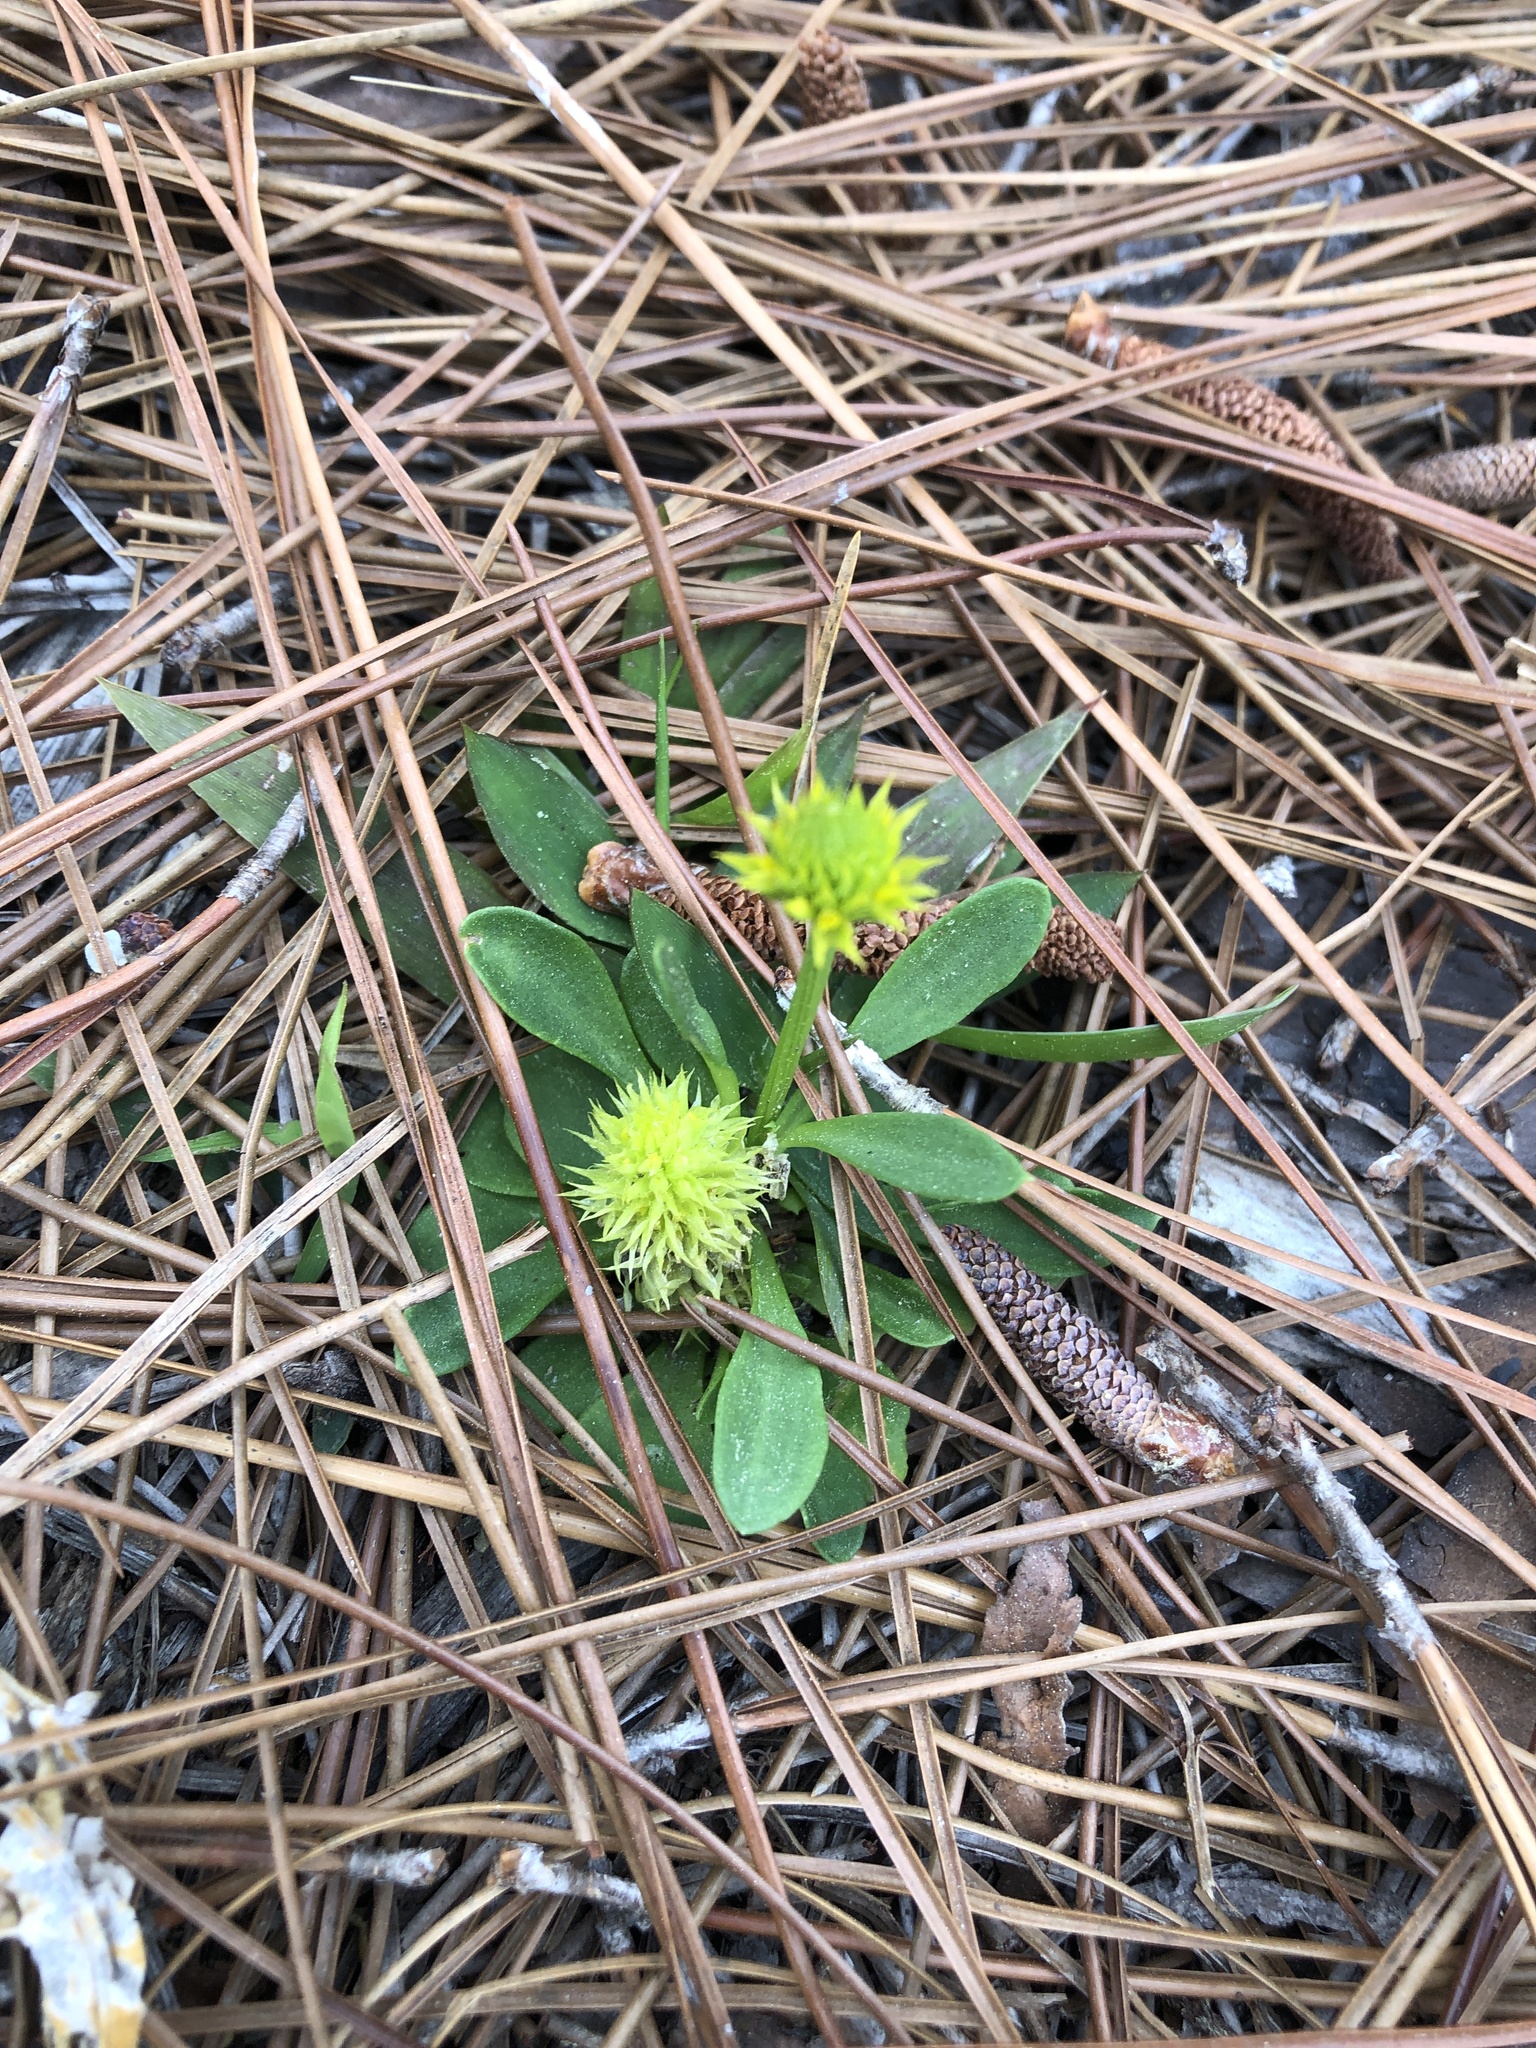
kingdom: Plantae
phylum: Tracheophyta
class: Magnoliopsida
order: Fabales
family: Polygalaceae
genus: Polygala
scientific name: Polygala nana
